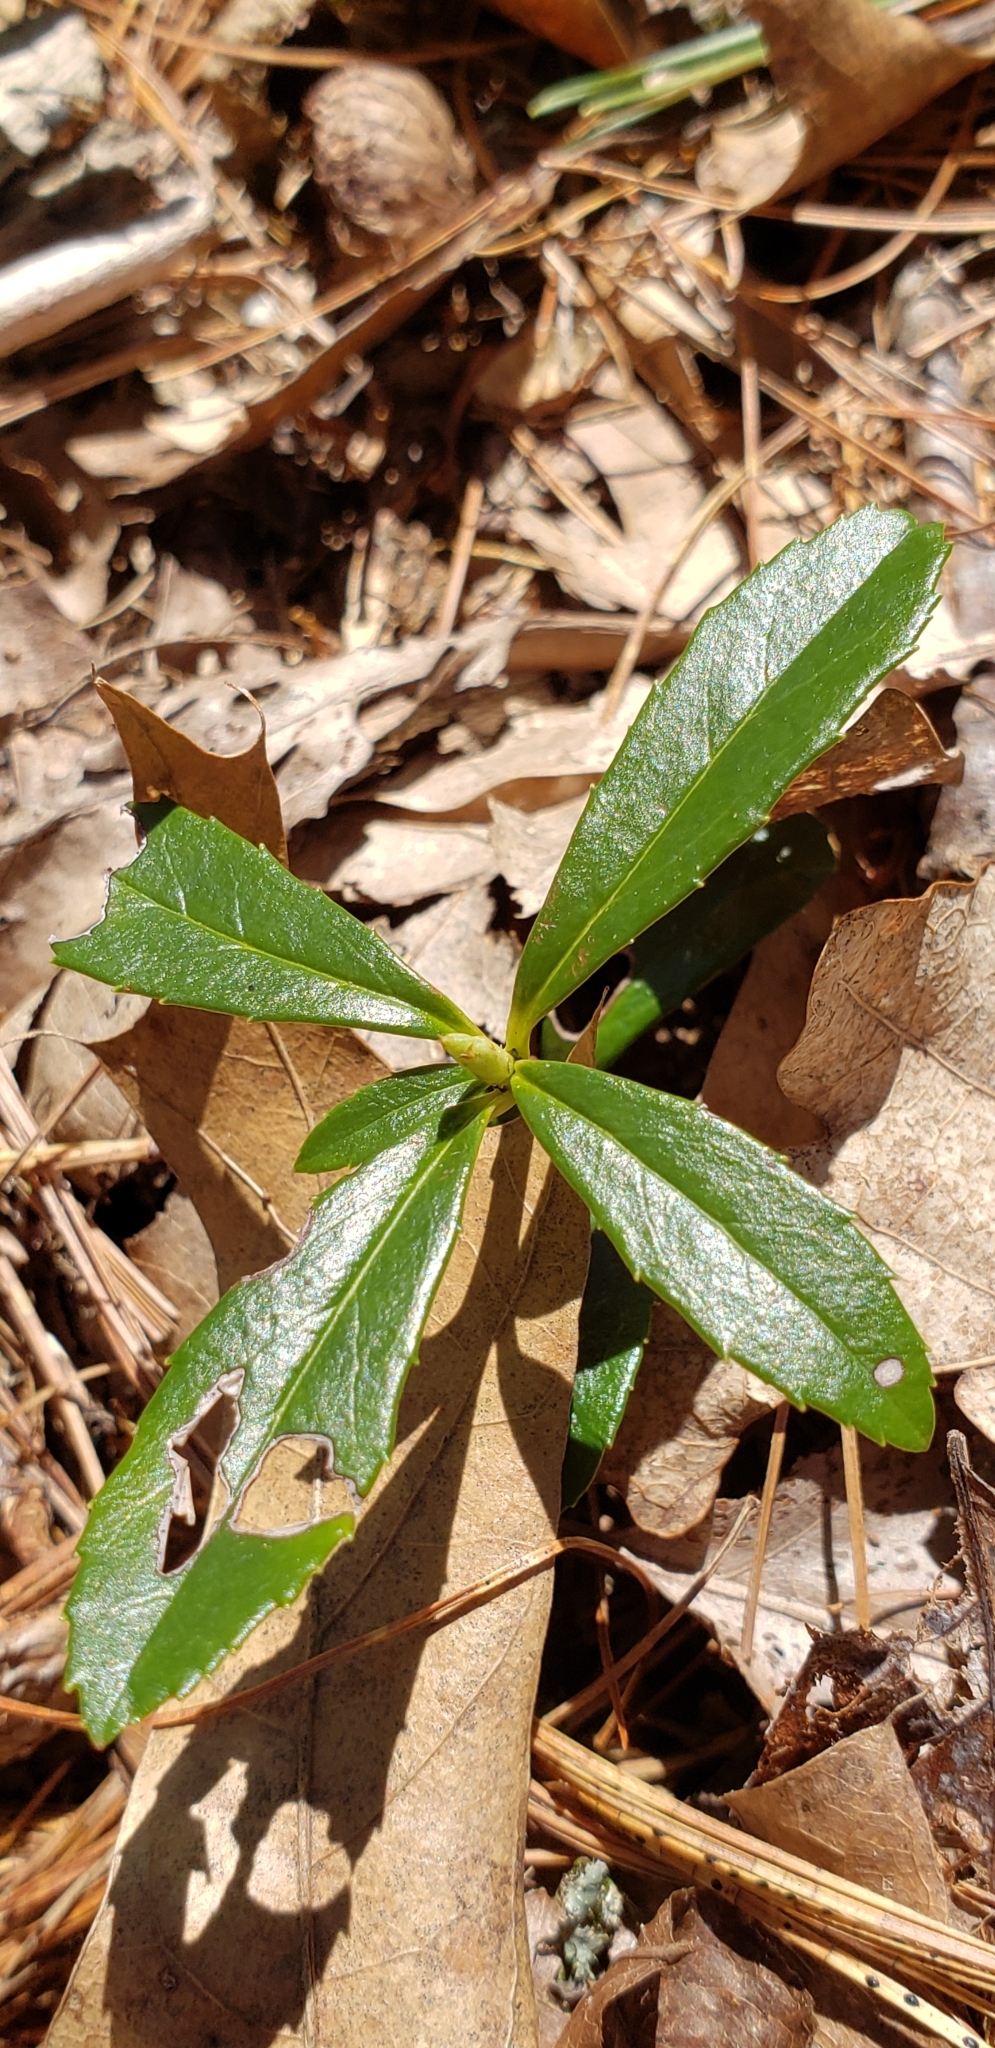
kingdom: Plantae
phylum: Tracheophyta
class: Magnoliopsida
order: Ericales
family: Ericaceae
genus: Chimaphila
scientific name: Chimaphila umbellata
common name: Pipsissewa
